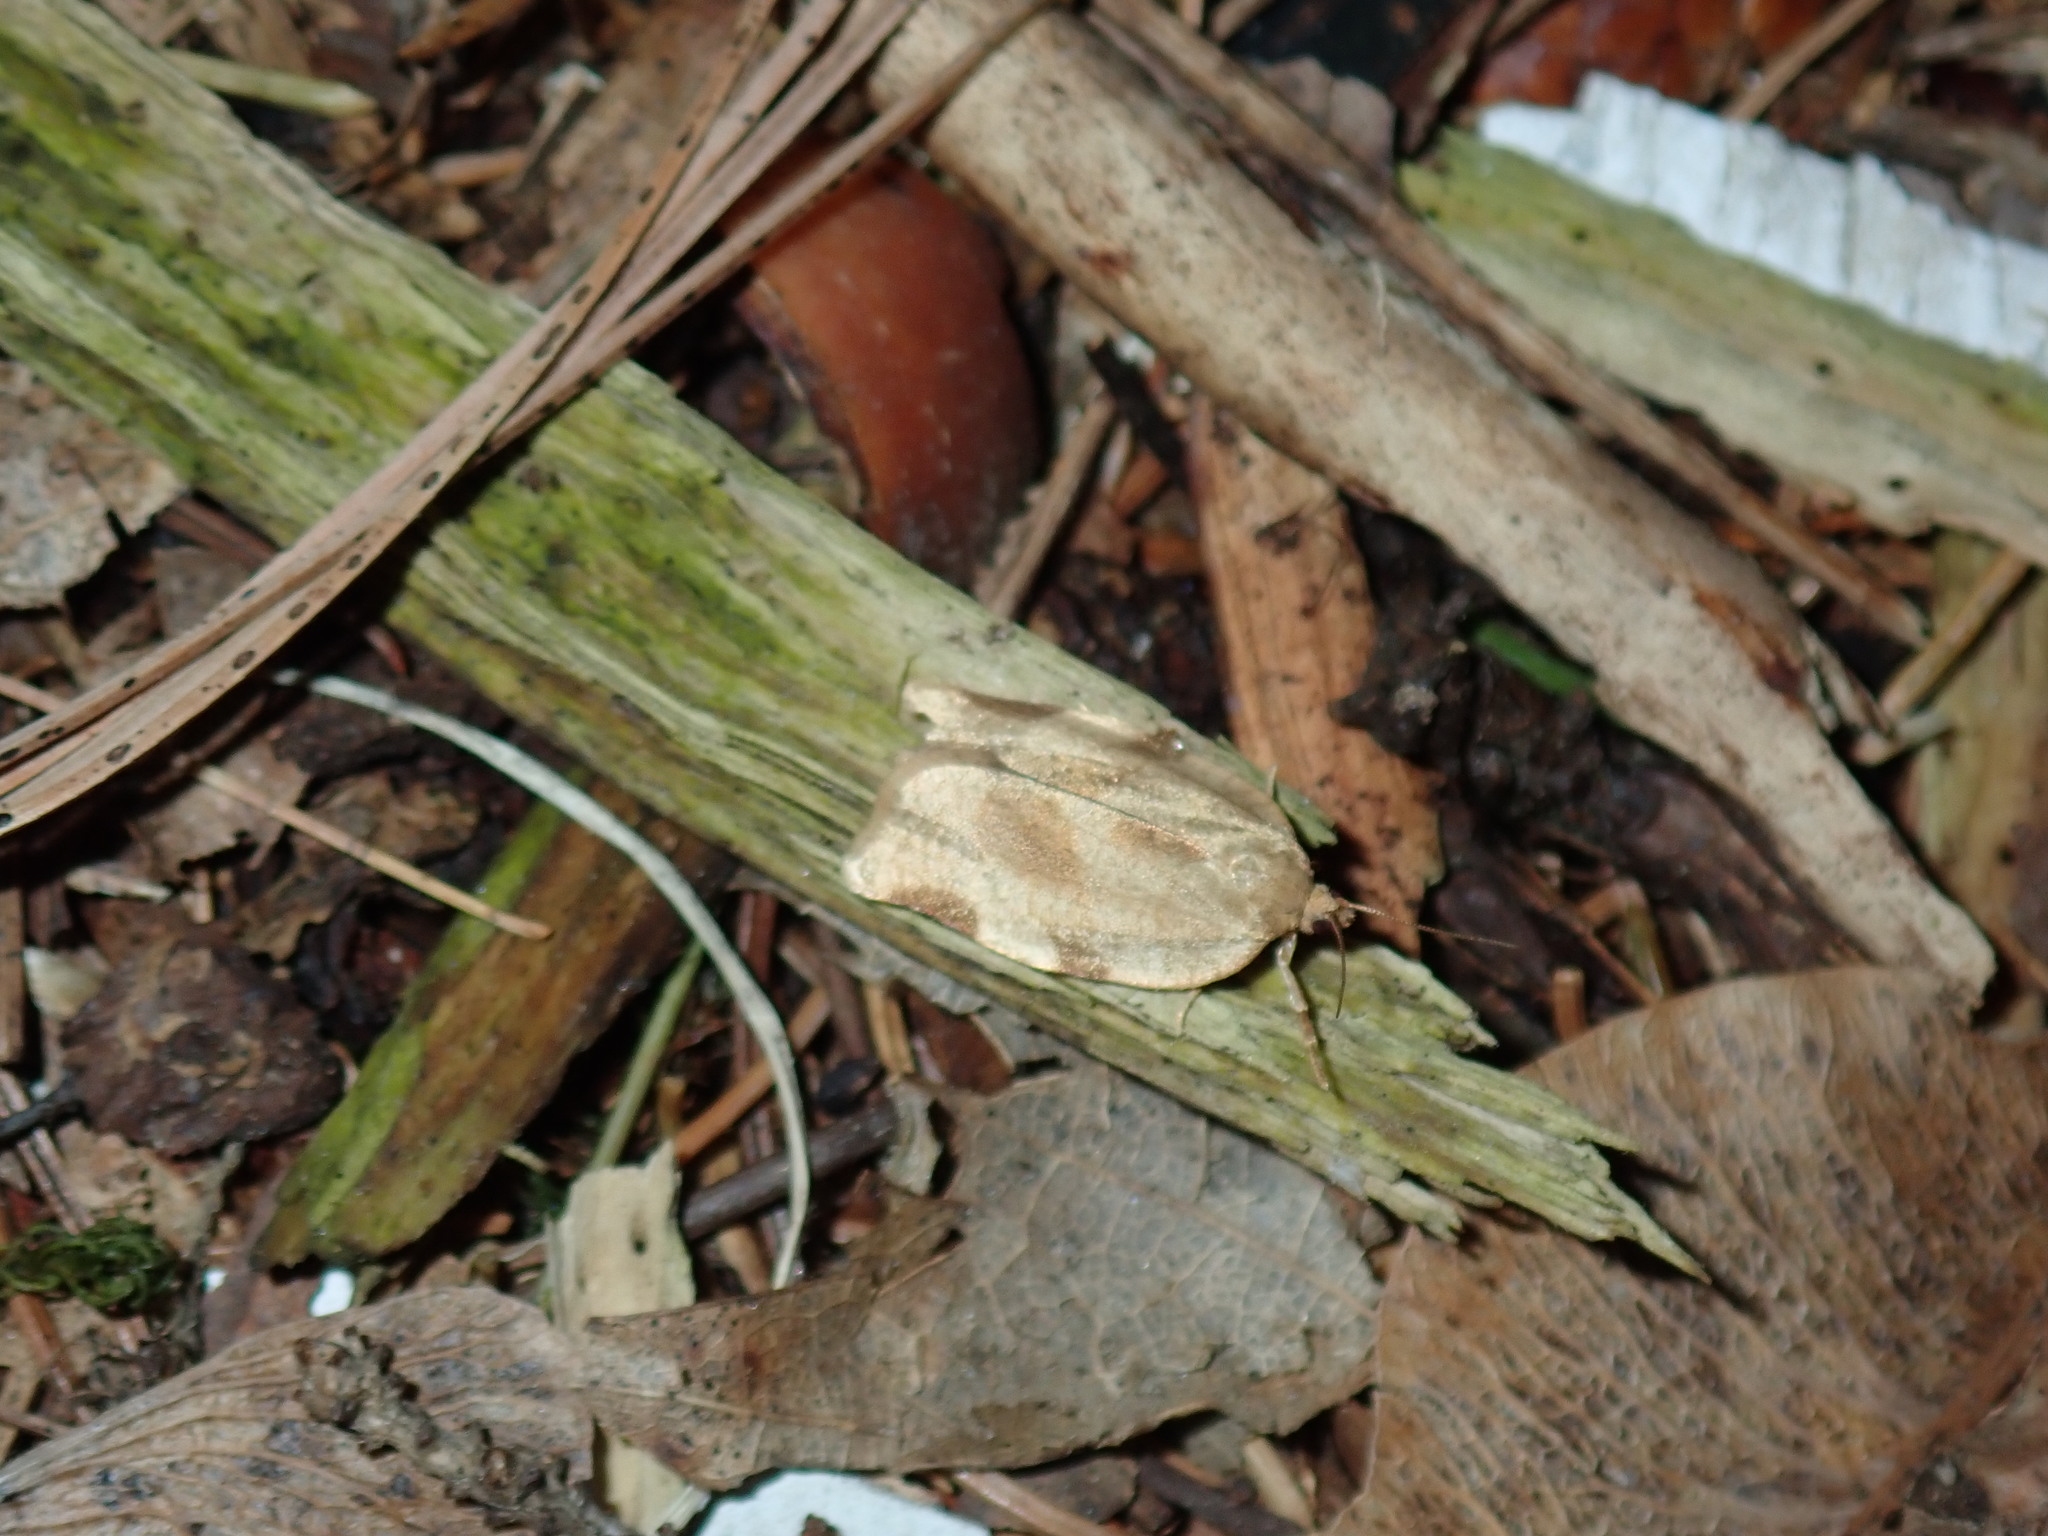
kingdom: Animalia
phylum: Arthropoda
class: Insecta
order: Lepidoptera
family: Tortricidae
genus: Choristoneura
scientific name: Choristoneura fractivittana
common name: Broken-banded leafroller moth
